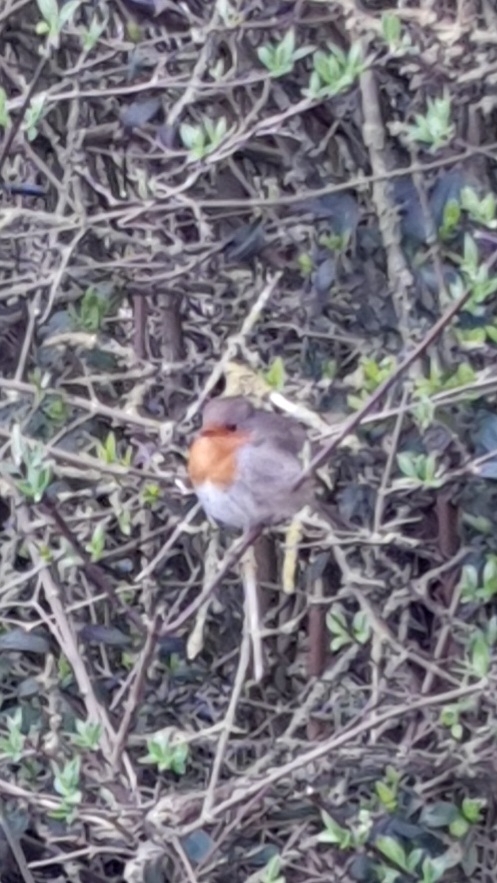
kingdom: Animalia
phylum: Chordata
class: Aves
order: Passeriformes
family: Muscicapidae
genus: Erithacus
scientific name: Erithacus rubecula
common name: European robin
